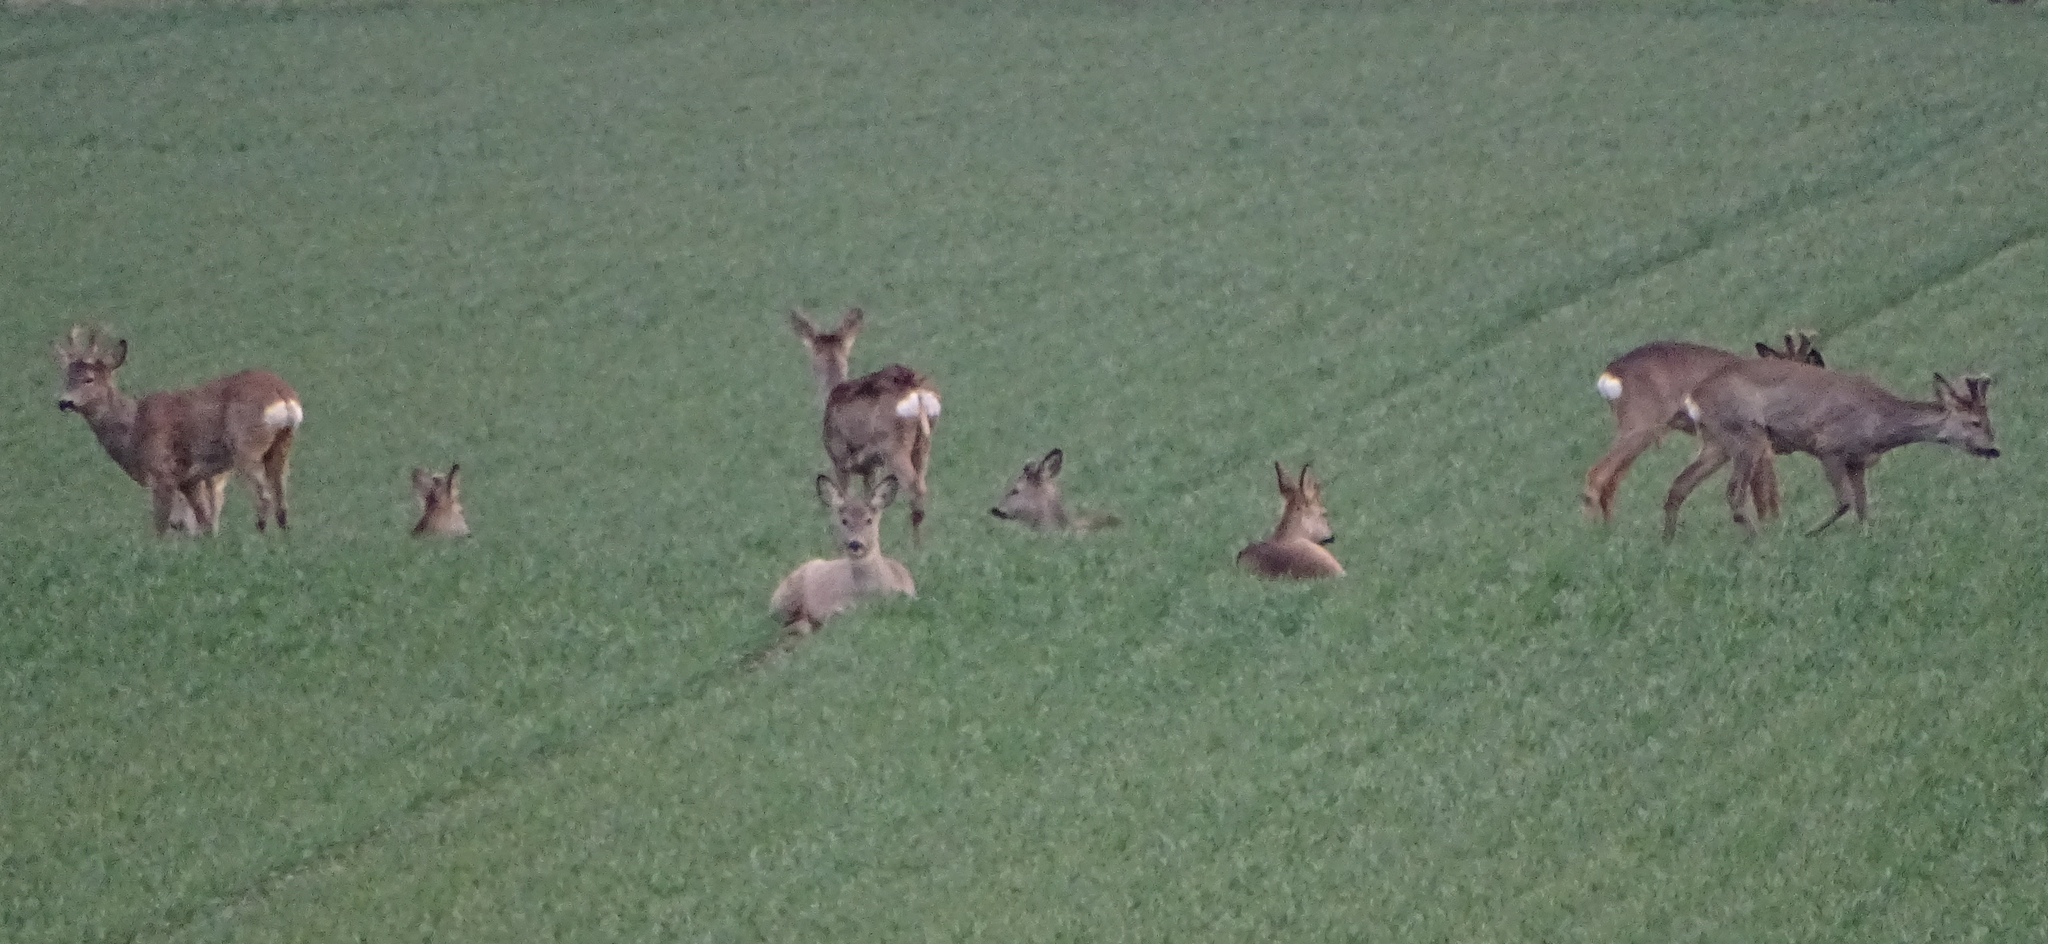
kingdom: Animalia
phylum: Chordata
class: Mammalia
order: Artiodactyla
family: Cervidae
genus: Capreolus
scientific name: Capreolus capreolus
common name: Western roe deer
